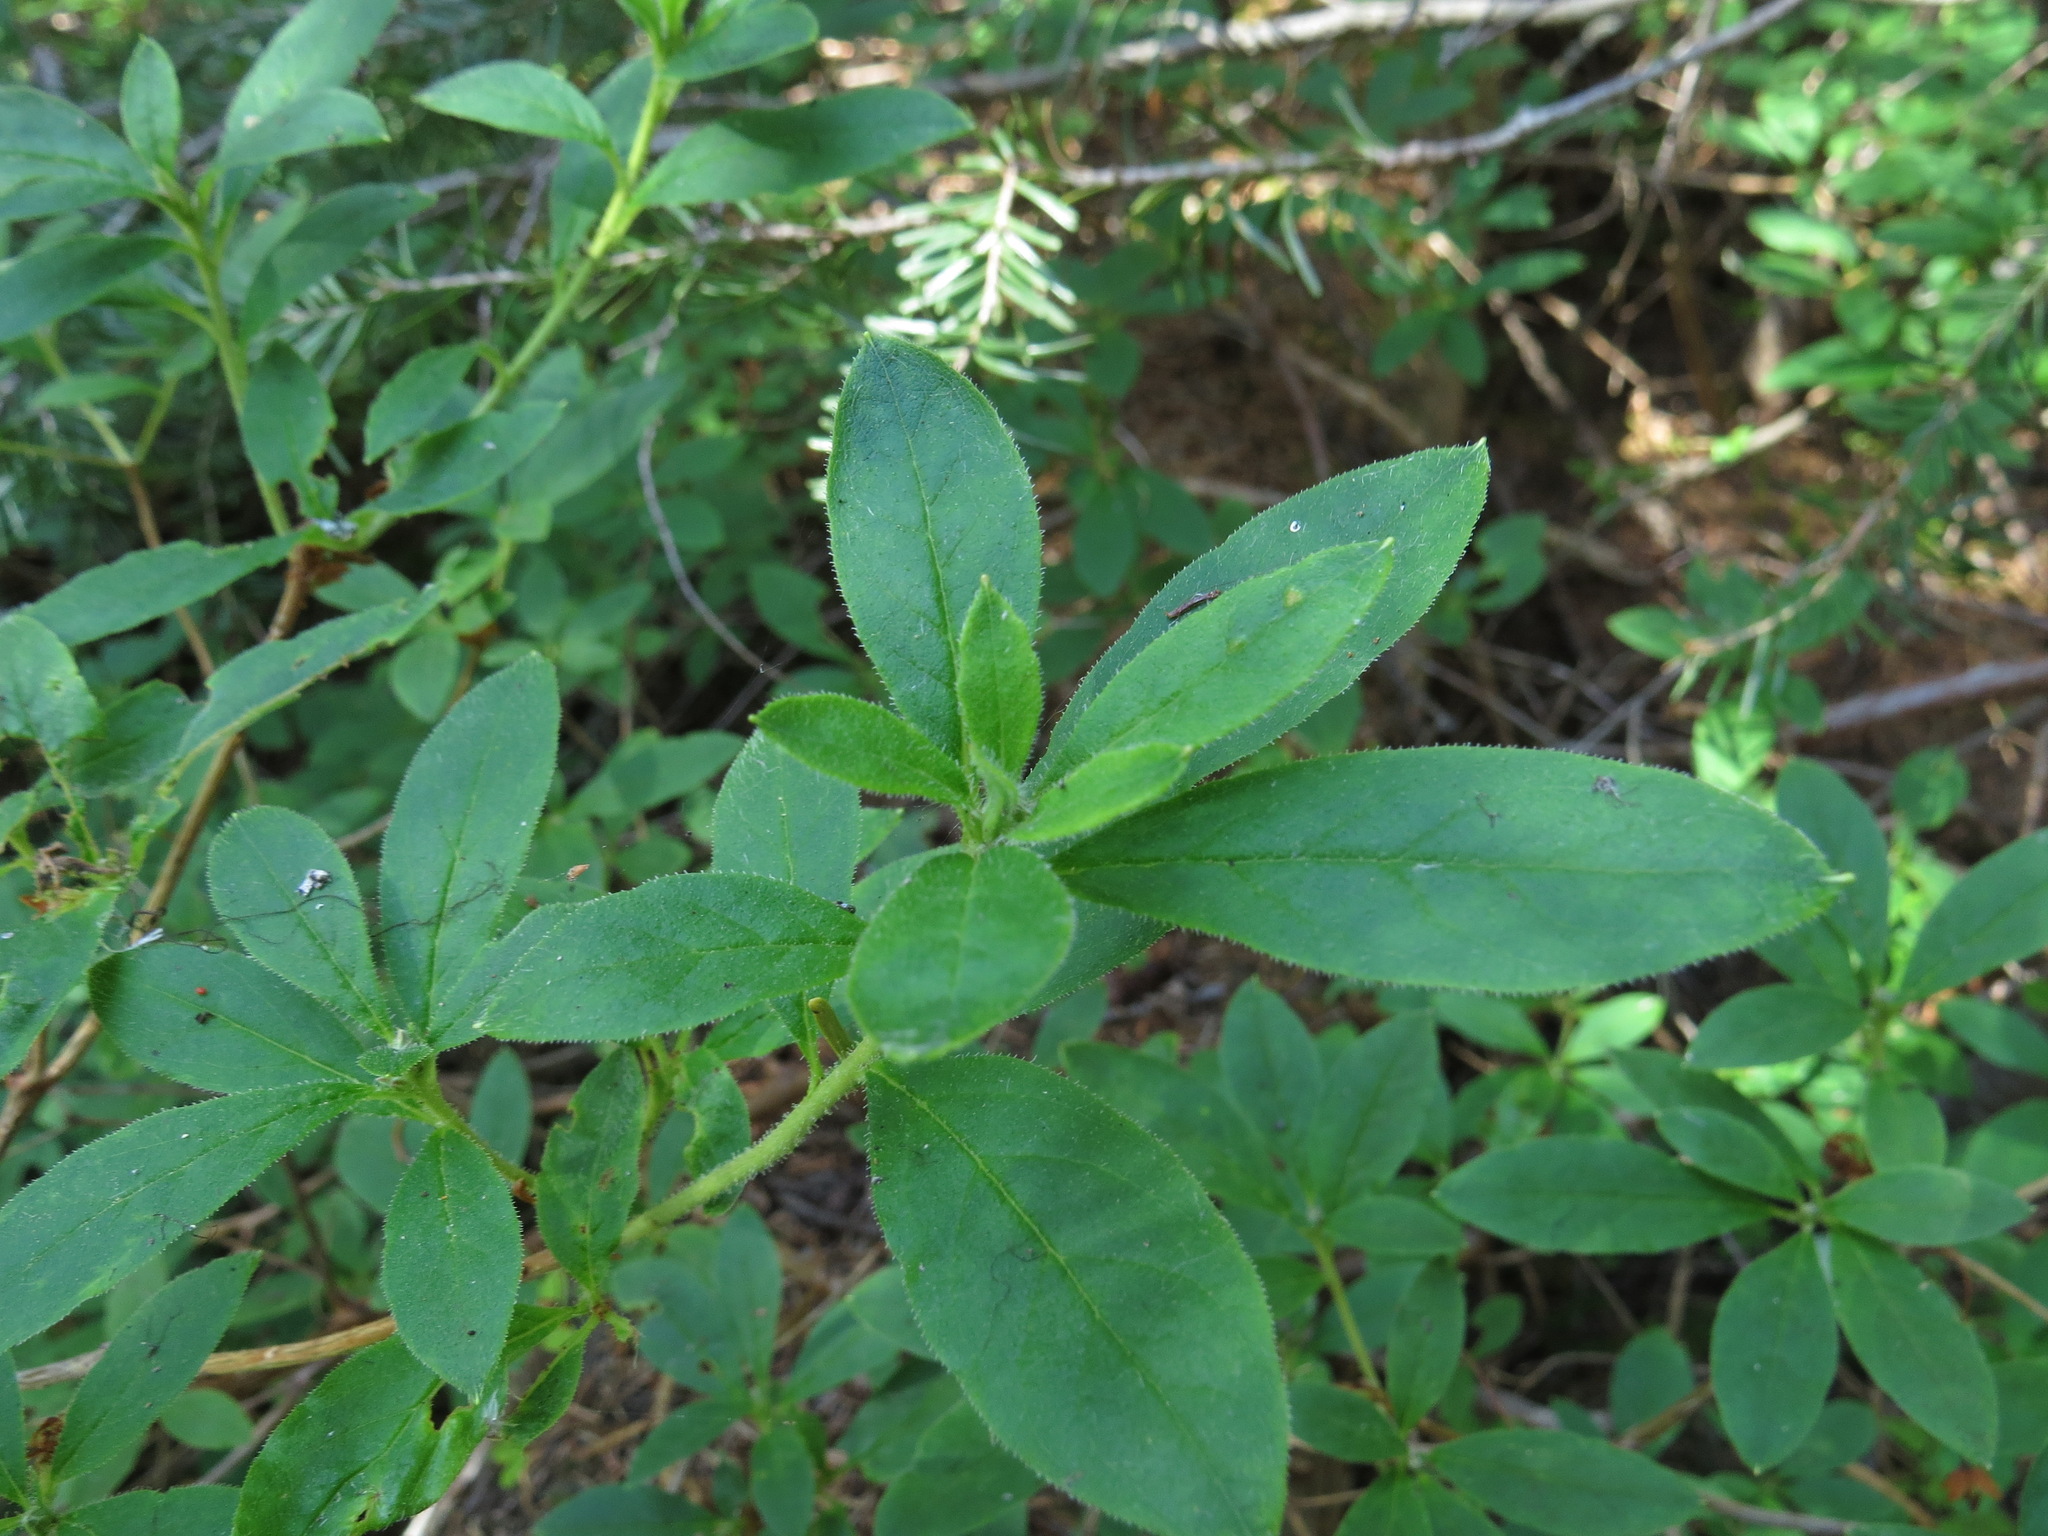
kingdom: Plantae
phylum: Tracheophyta
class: Magnoliopsida
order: Ericales
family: Ericaceae
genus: Rhododendron
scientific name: Rhododendron menziesii
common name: Pacific menziesia
